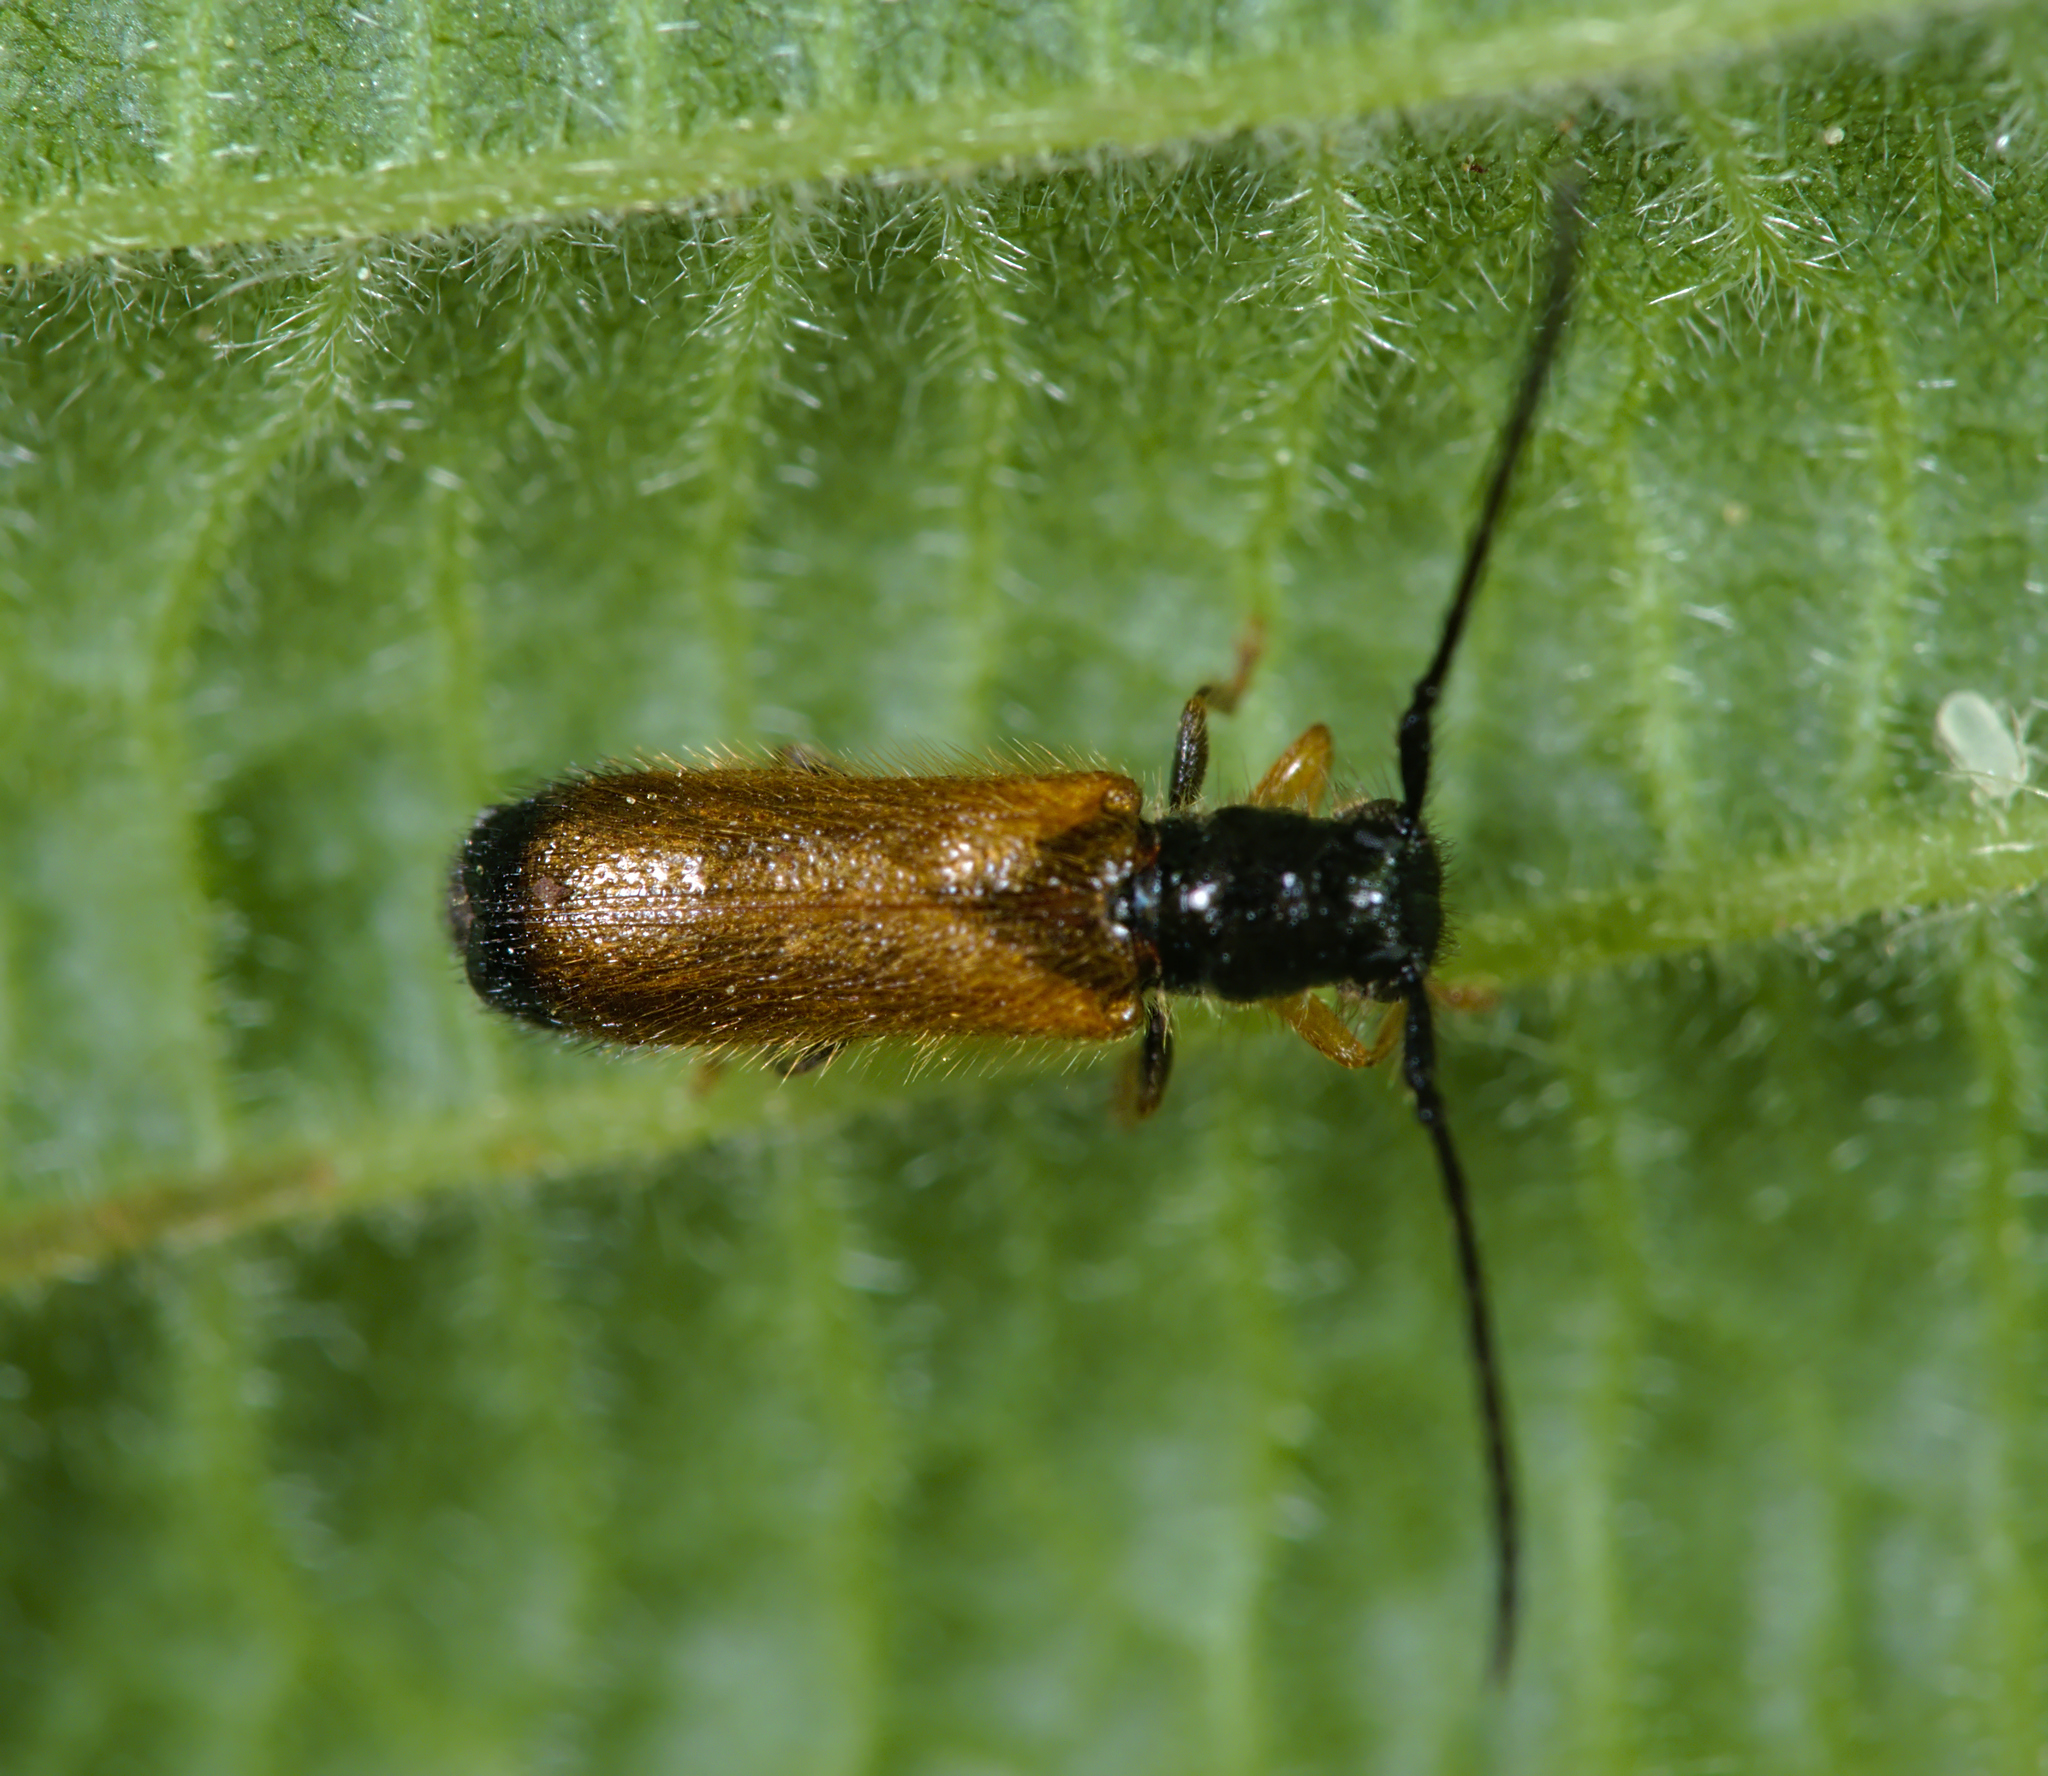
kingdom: Animalia
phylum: Arthropoda
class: Insecta
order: Coleoptera
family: Cerambycidae
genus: Tetrops
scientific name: Tetrops praeustus
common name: Plum beetle
